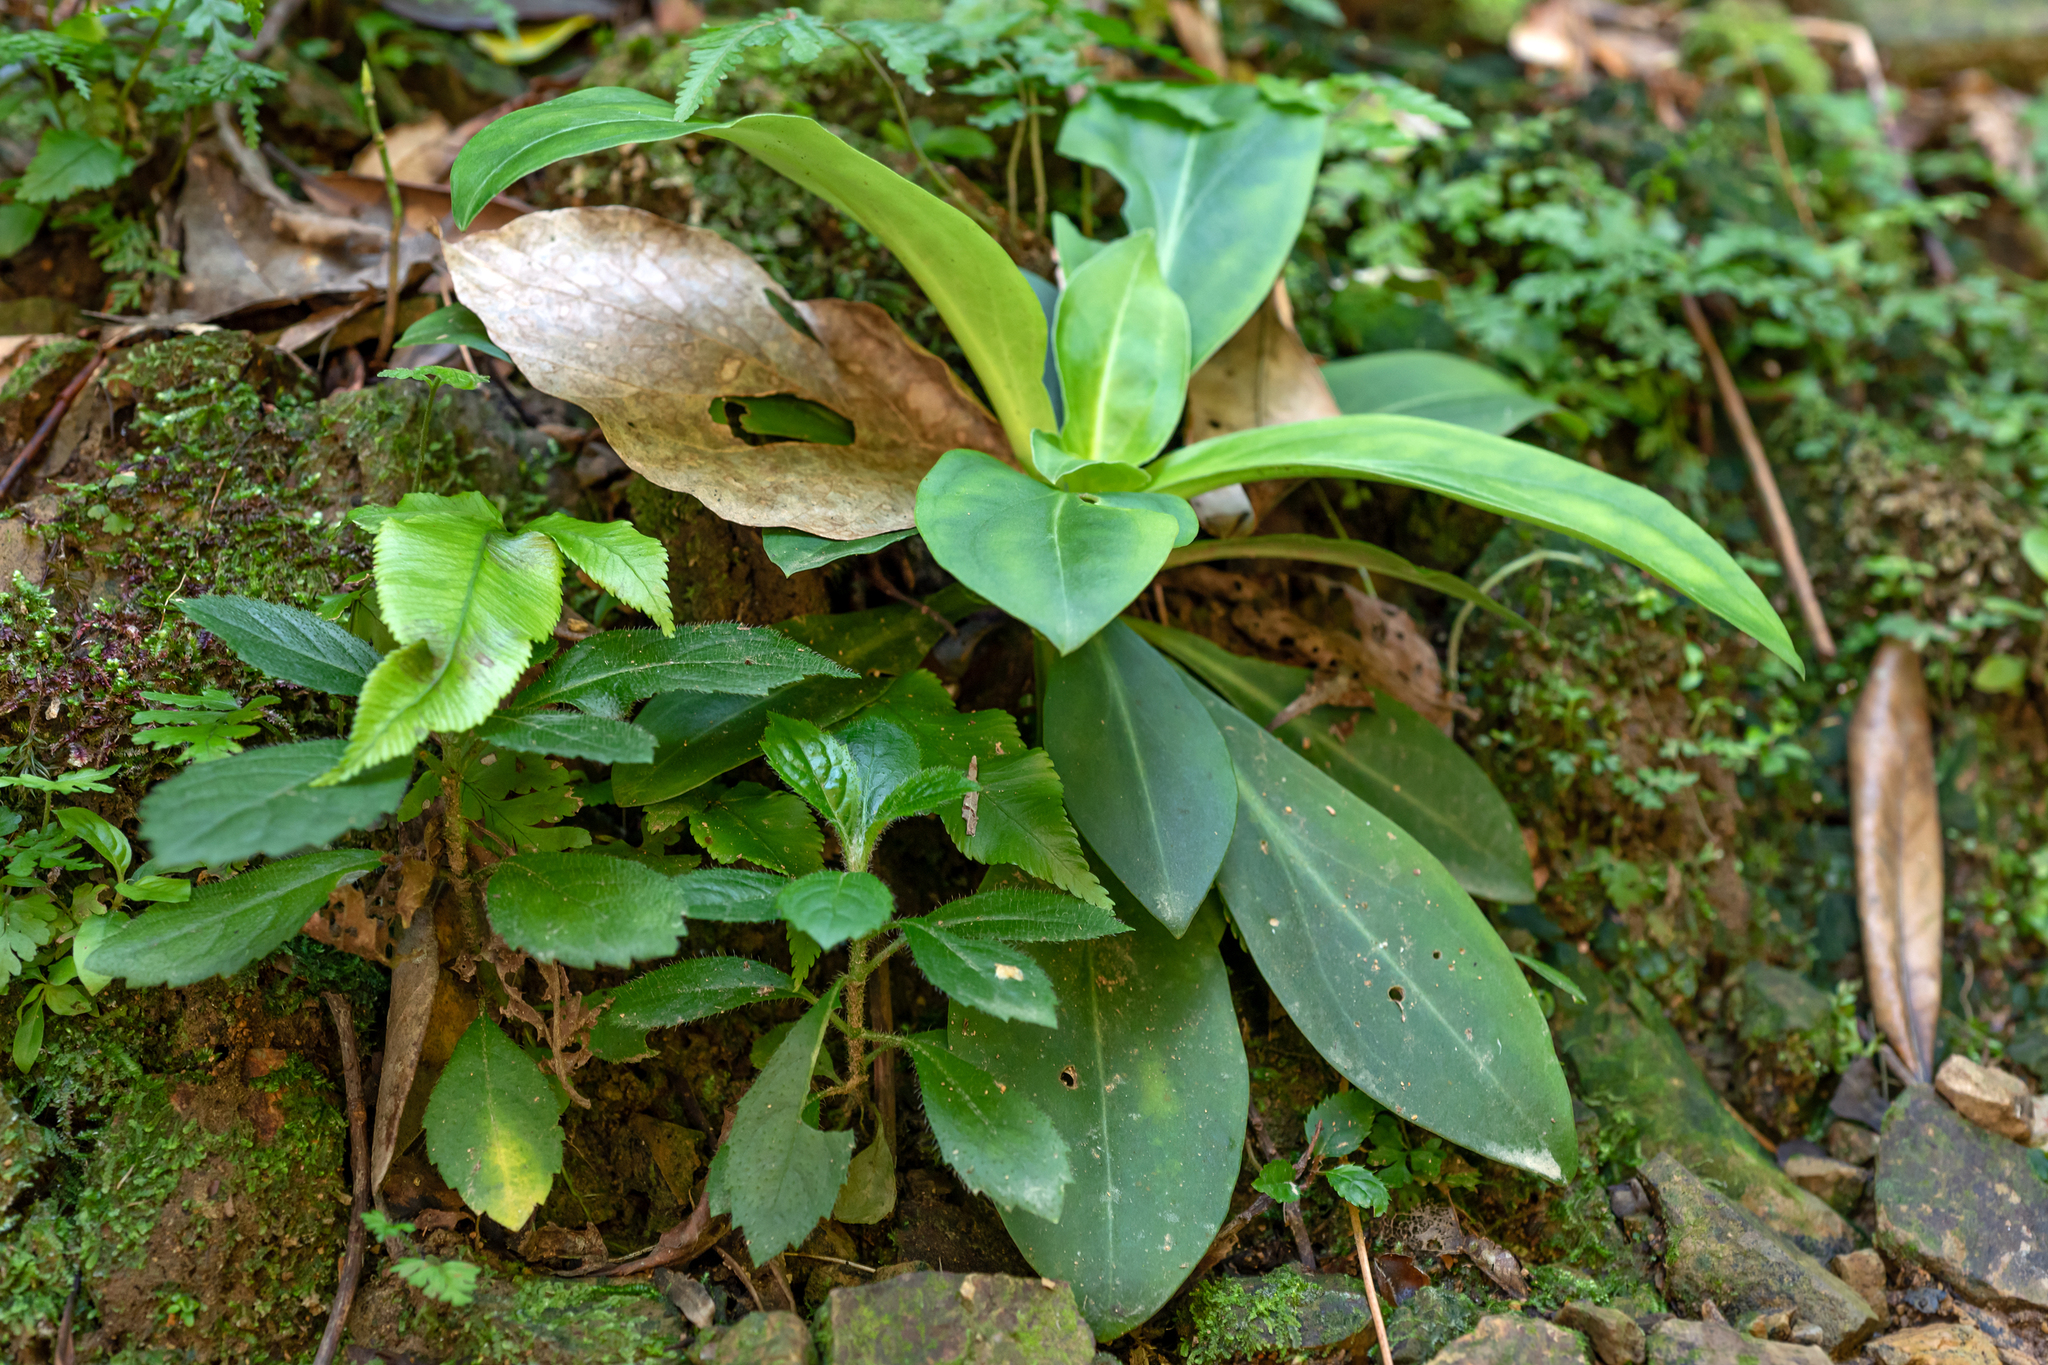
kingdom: Plantae
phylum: Tracheophyta
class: Magnoliopsida
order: Gentianales
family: Gentianaceae
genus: Swertia
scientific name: Swertia shintenensis
